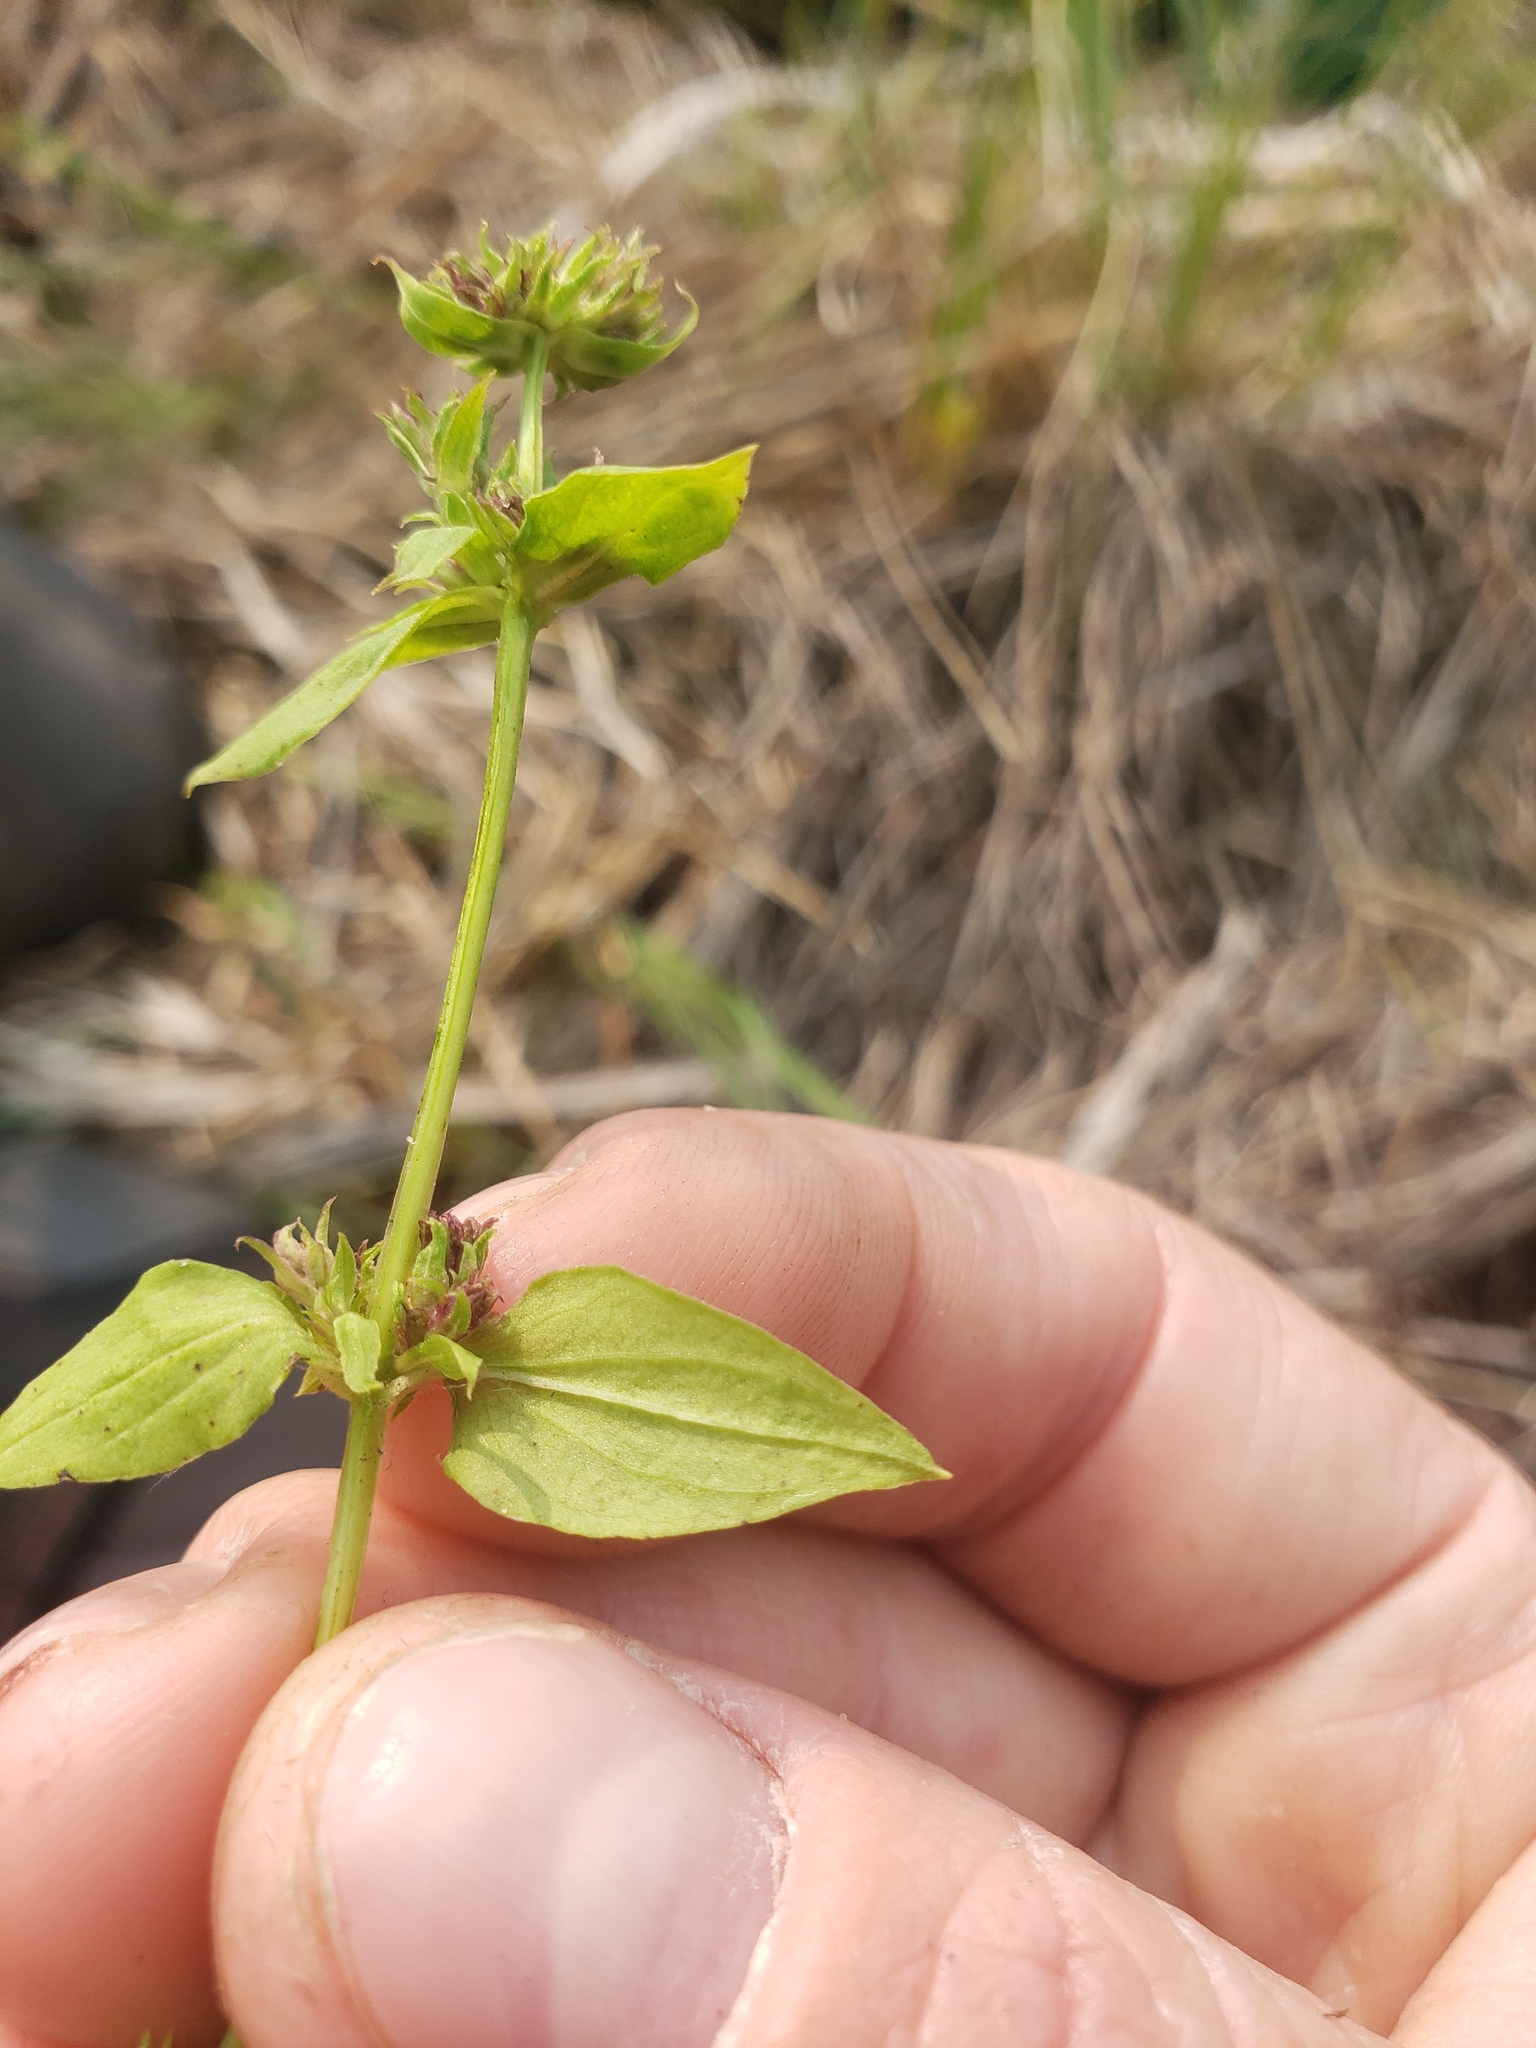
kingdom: Plantae
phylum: Tracheophyta
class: Magnoliopsida
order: Gentianales
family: Gentianaceae
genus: Halenia
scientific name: Halenia deflexa
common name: American spurred gentian
